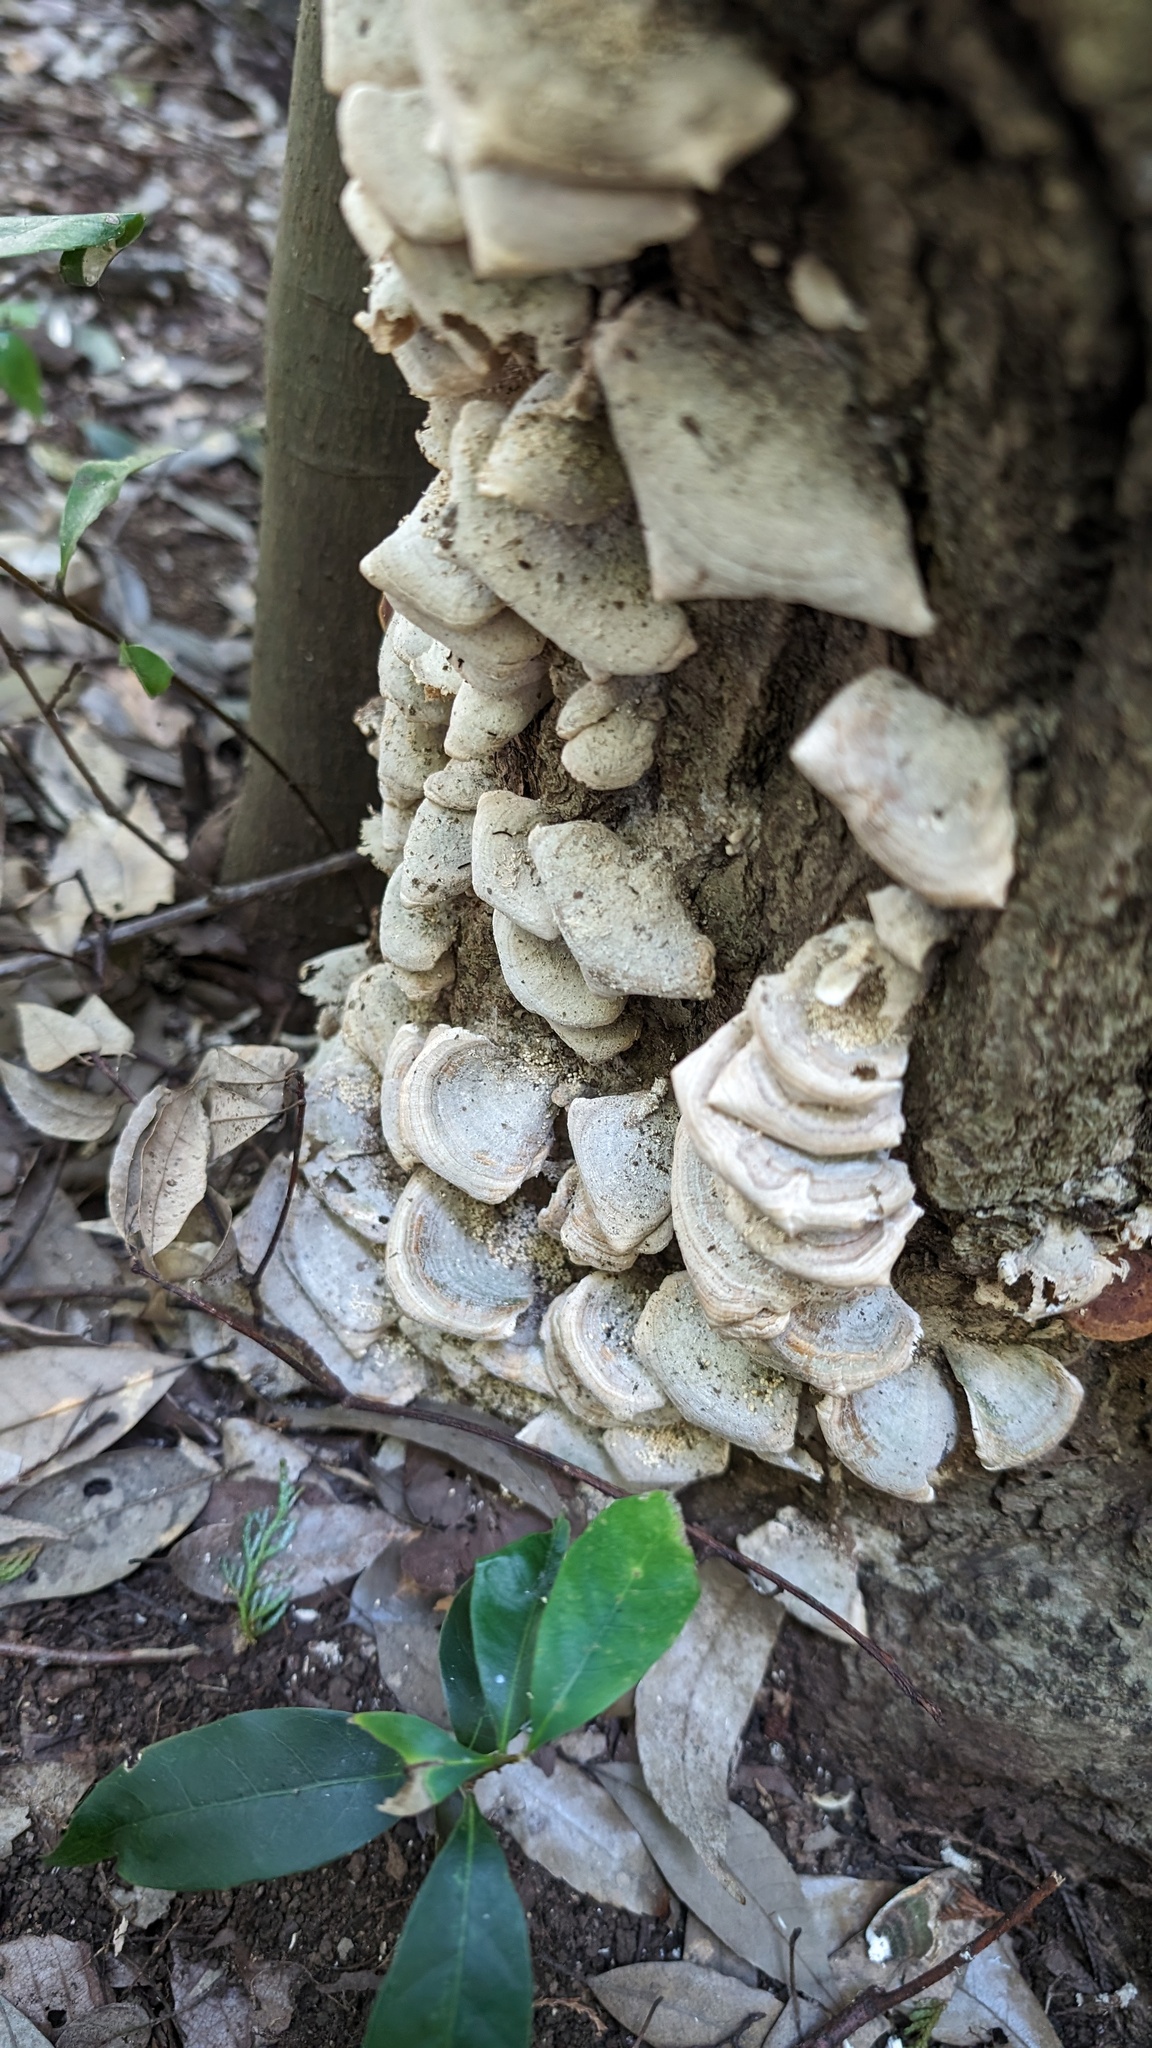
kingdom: Fungi
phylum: Basidiomycota
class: Agaricomycetes
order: Hymenochaetales
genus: Trichaptum
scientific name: Trichaptum biforme
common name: Violet-toothed polypore
